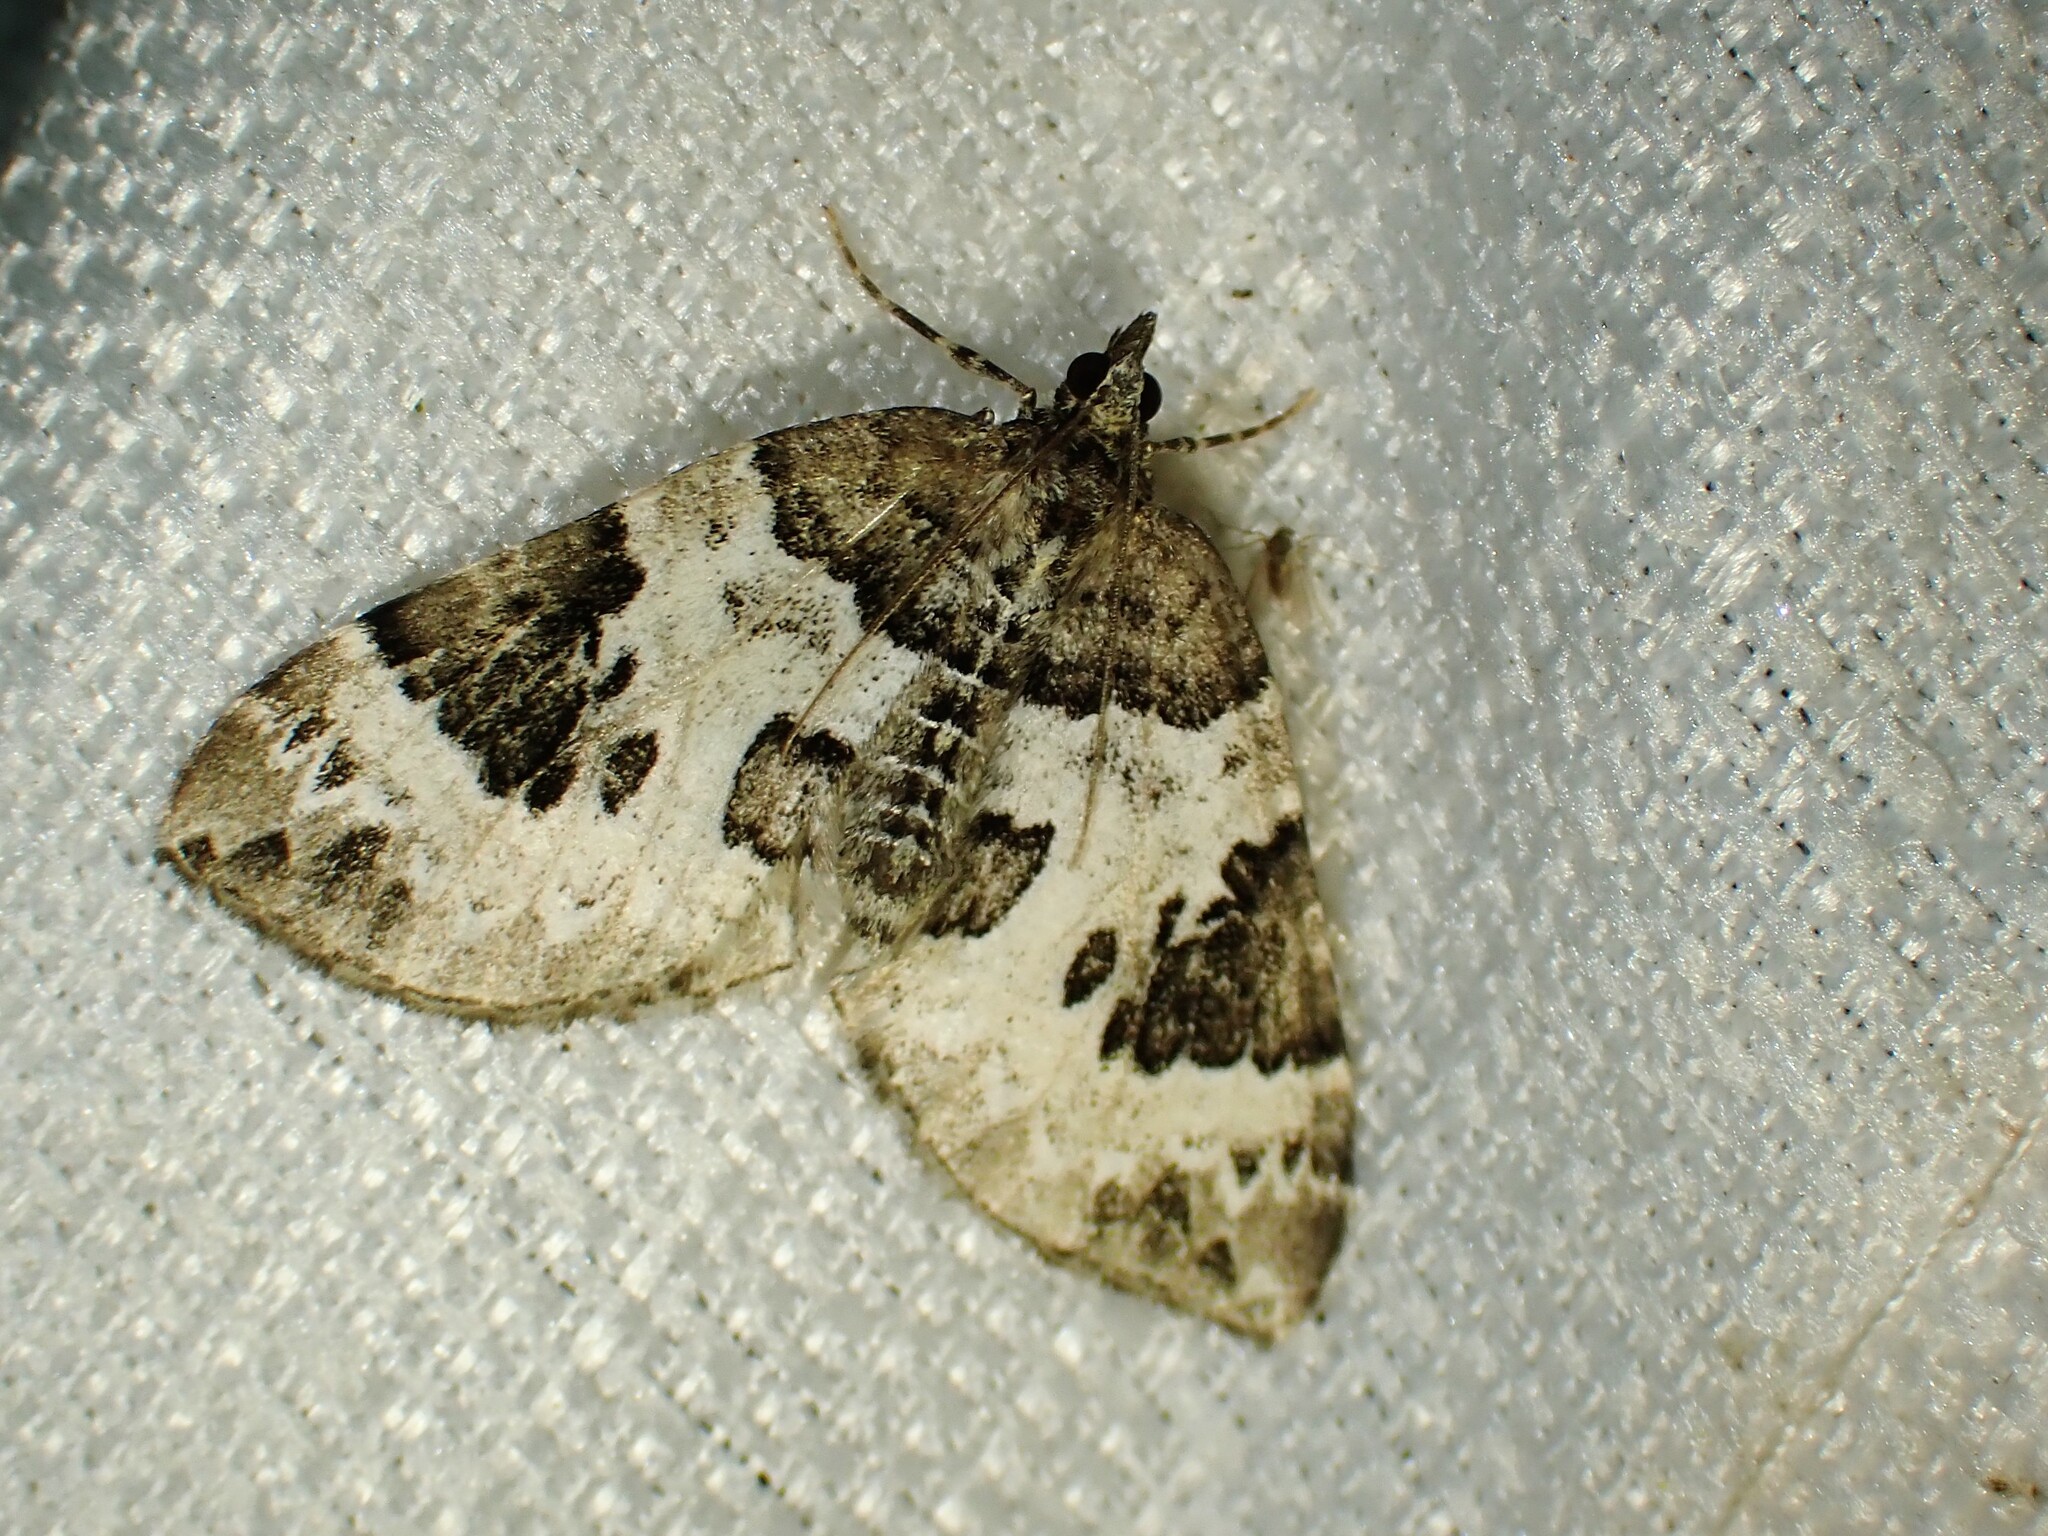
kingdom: Animalia
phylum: Arthropoda
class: Insecta
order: Lepidoptera
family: Geometridae
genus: Eulithis
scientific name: Eulithis explanata
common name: White eulithis
